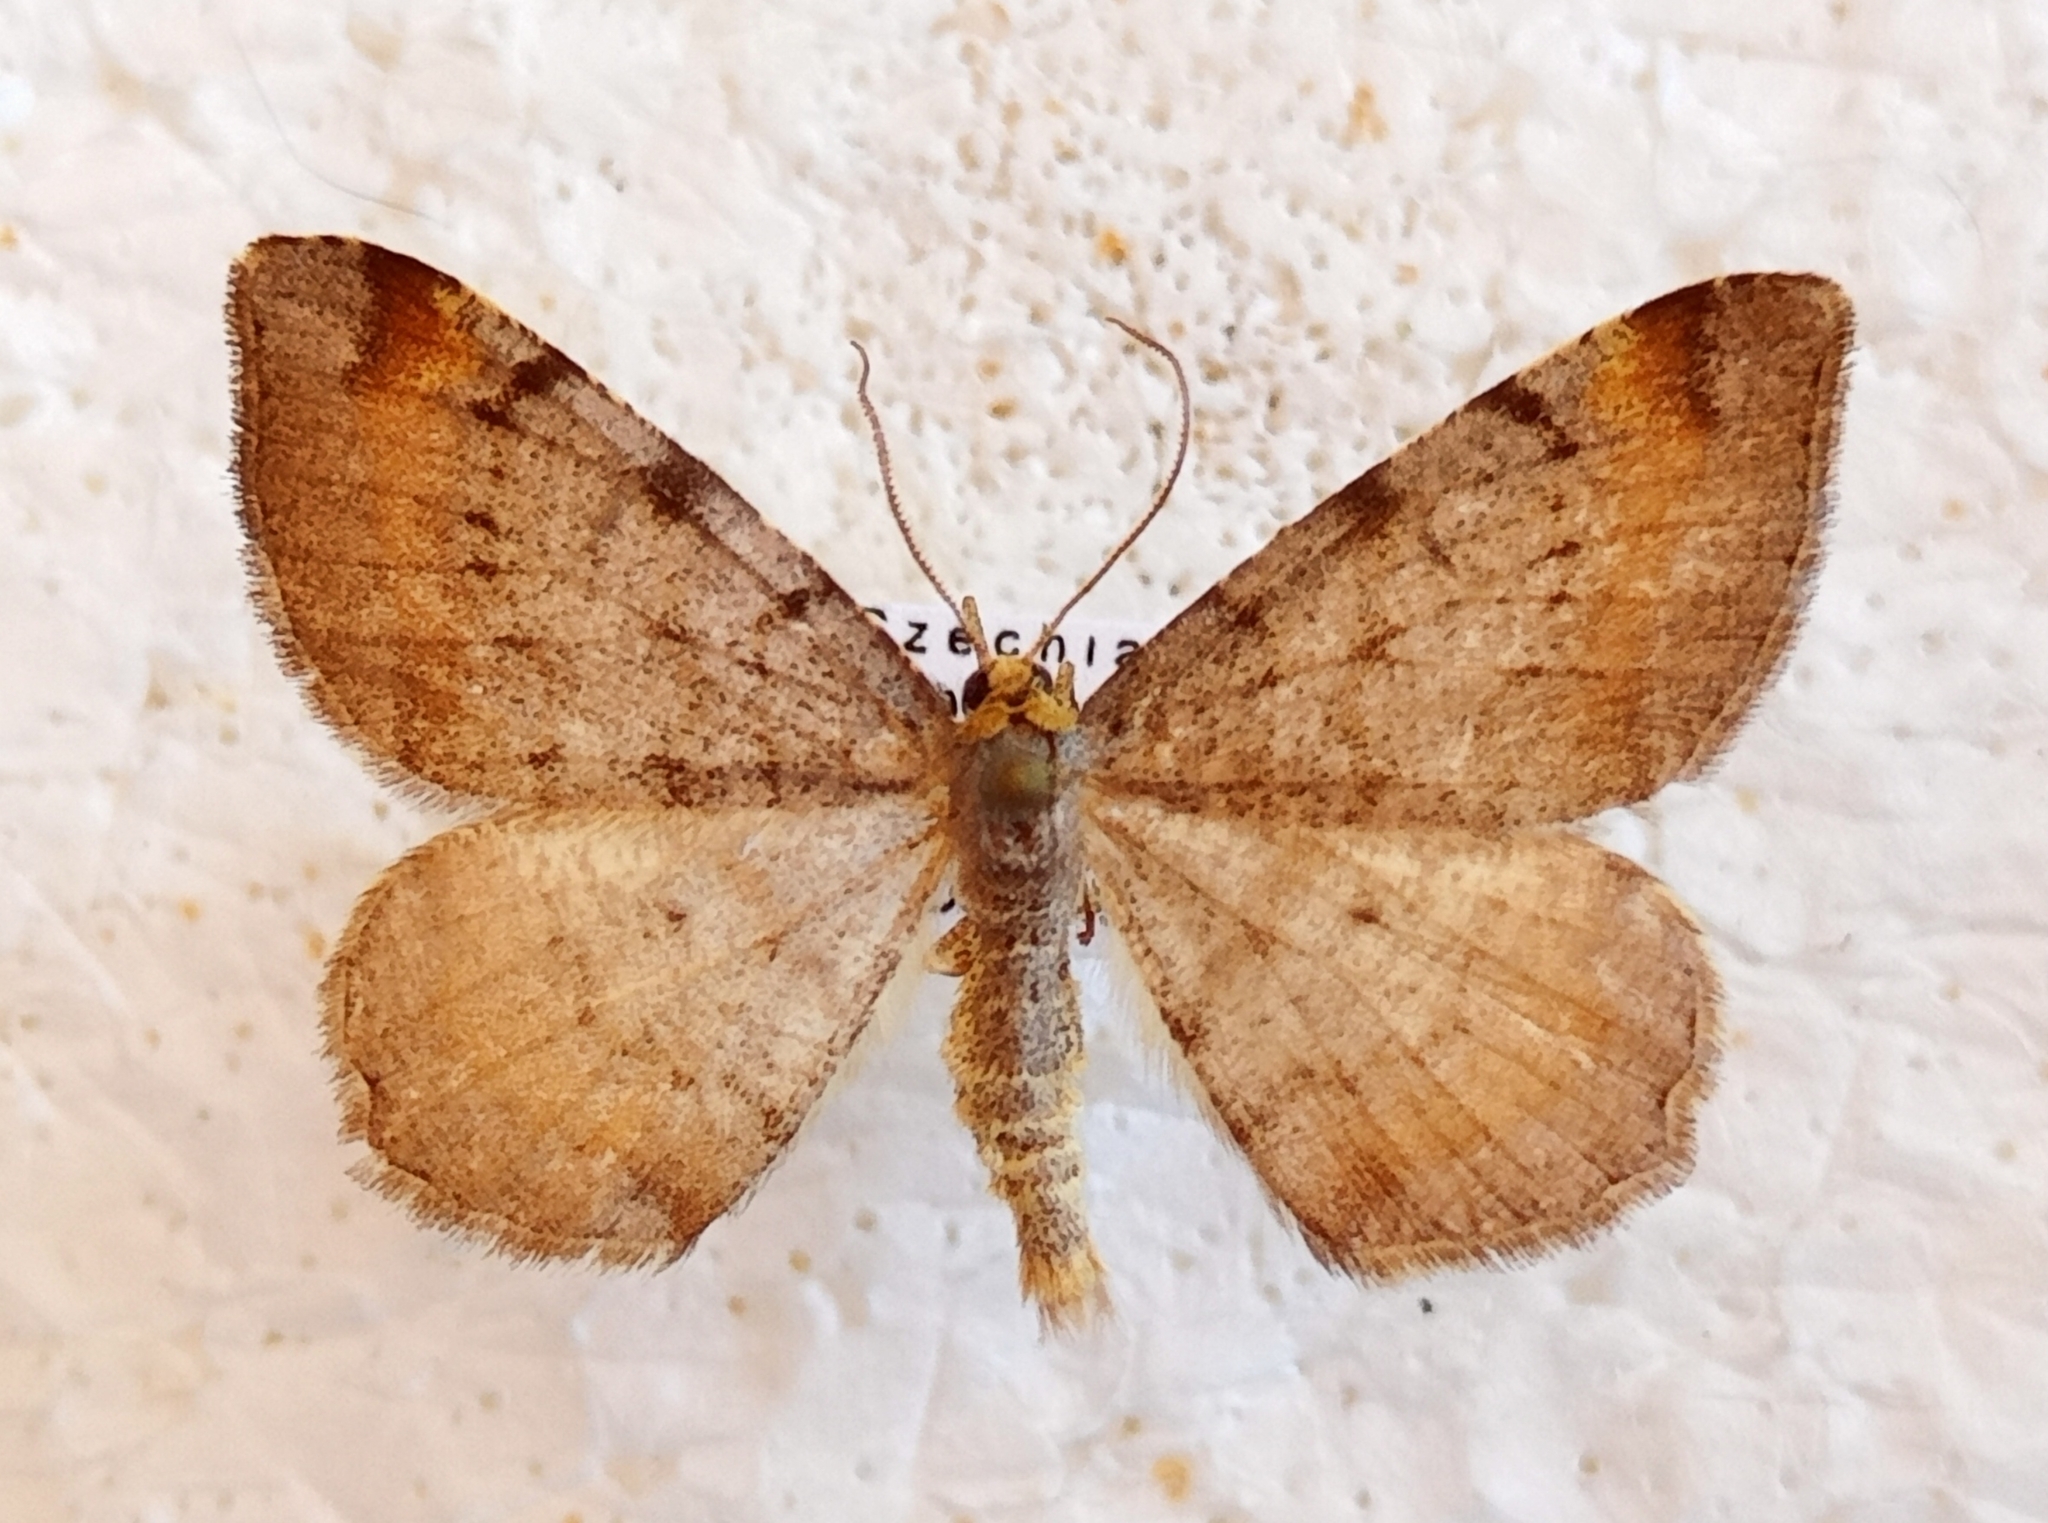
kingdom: Animalia
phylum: Arthropoda
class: Insecta
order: Lepidoptera
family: Geometridae
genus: Macaria
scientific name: Macaria liturata
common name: Tawny-barred angle
